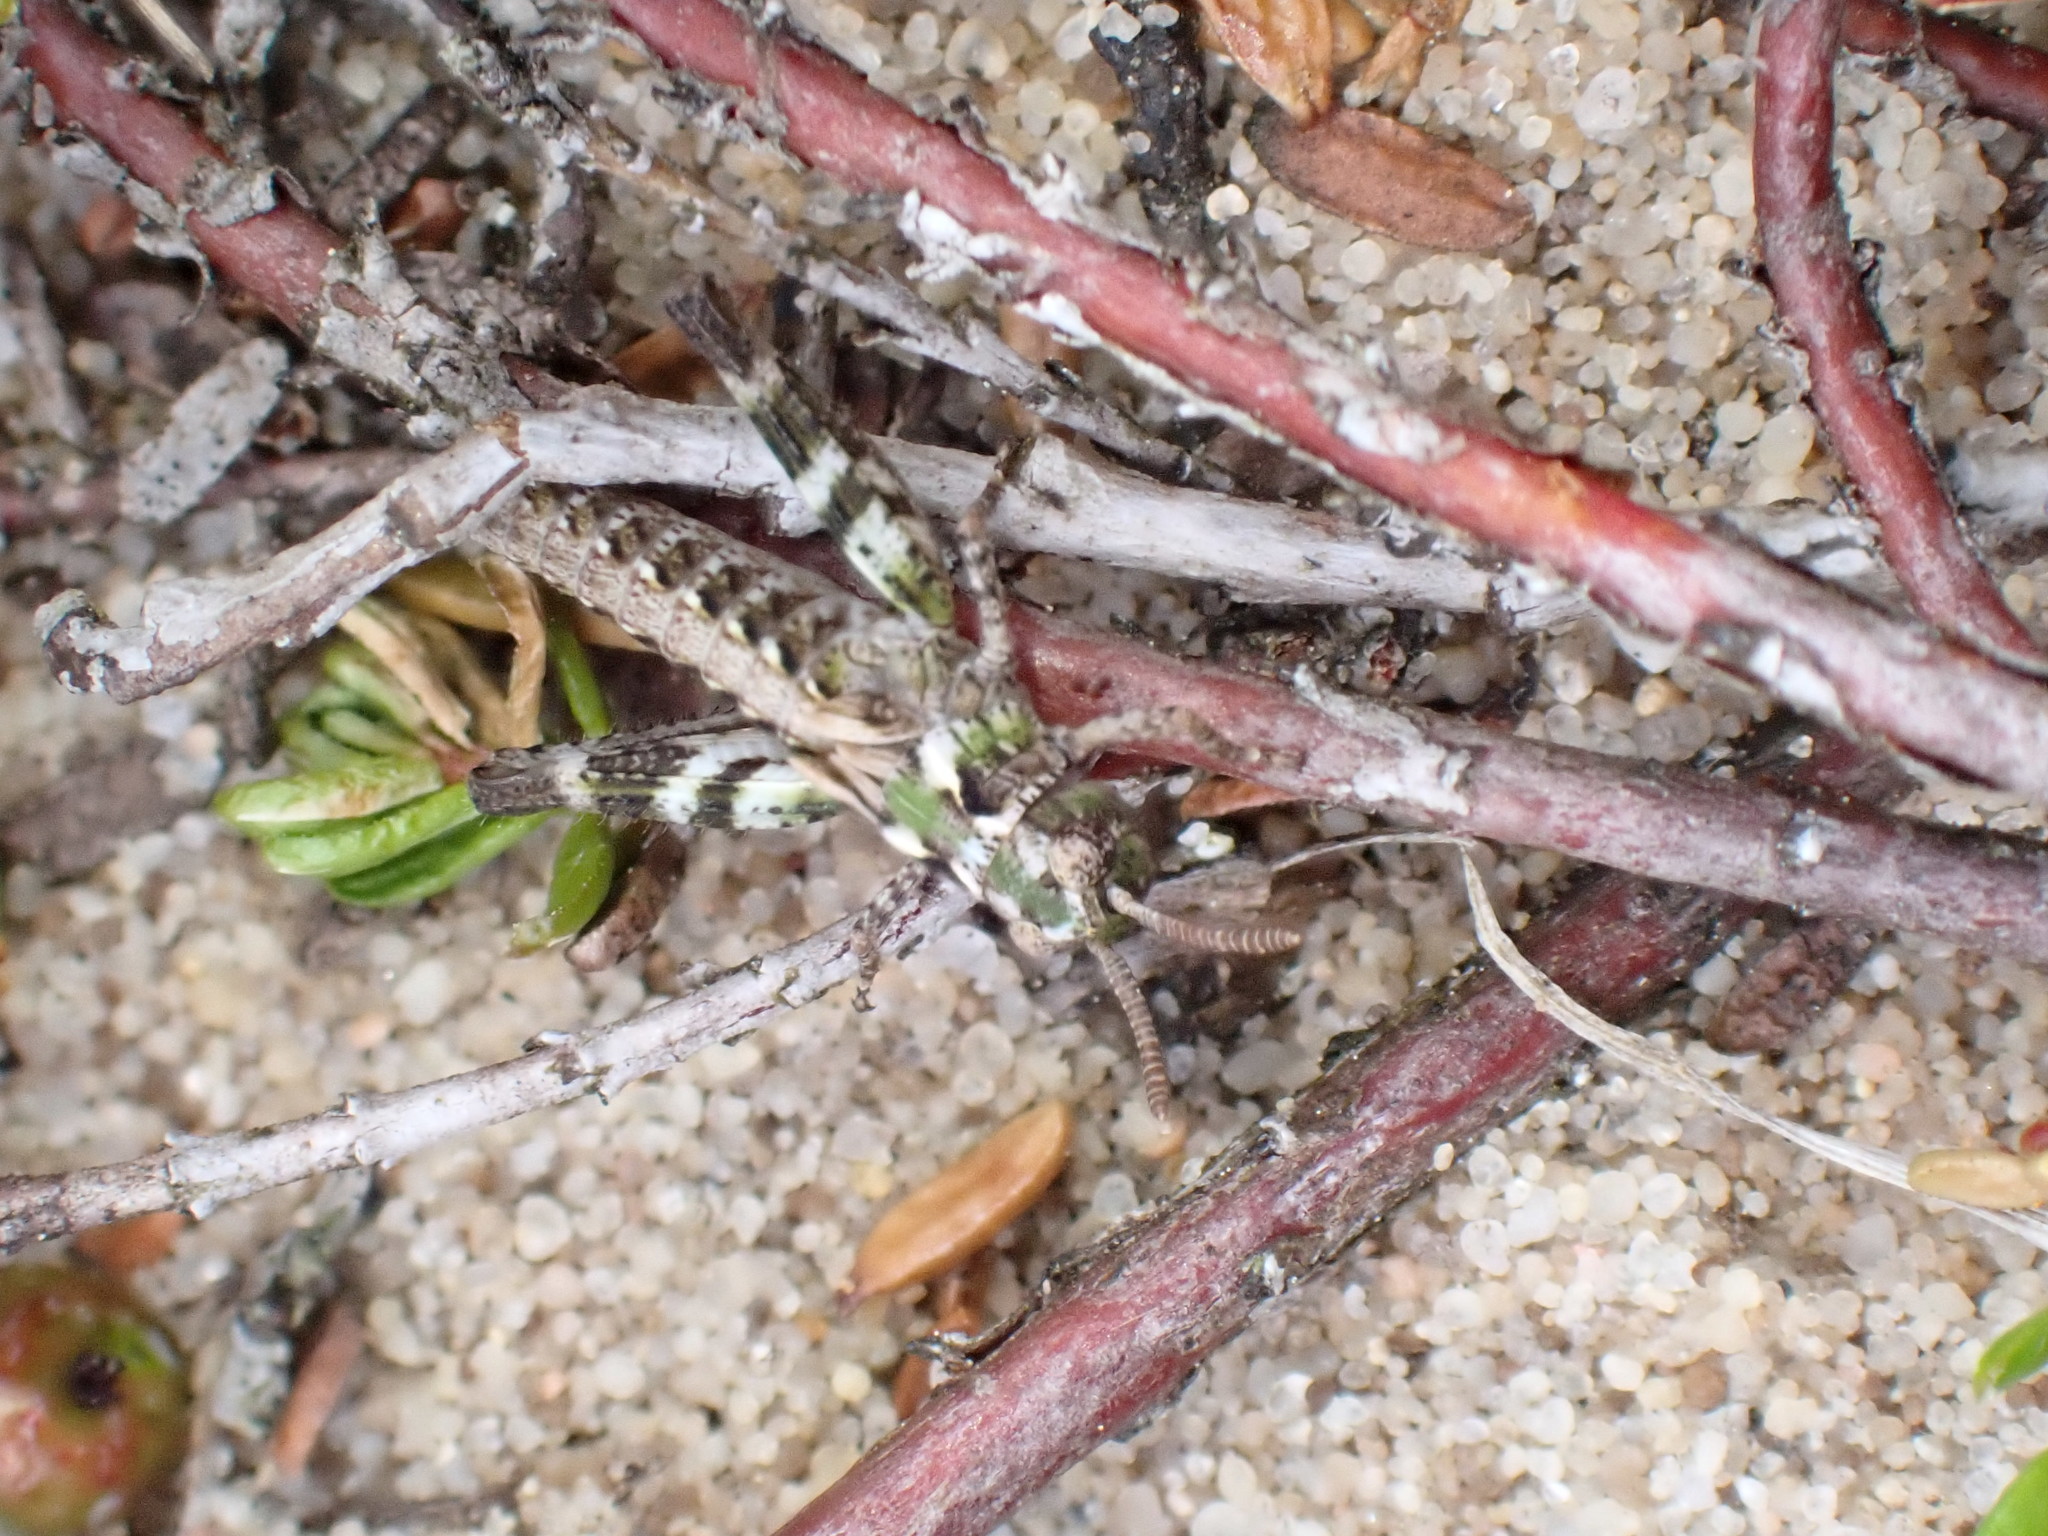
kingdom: Animalia
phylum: Arthropoda
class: Insecta
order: Orthoptera
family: Acrididae
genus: Myrmeleotettix
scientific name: Myrmeleotettix maculatus
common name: Mottled grasshopper
